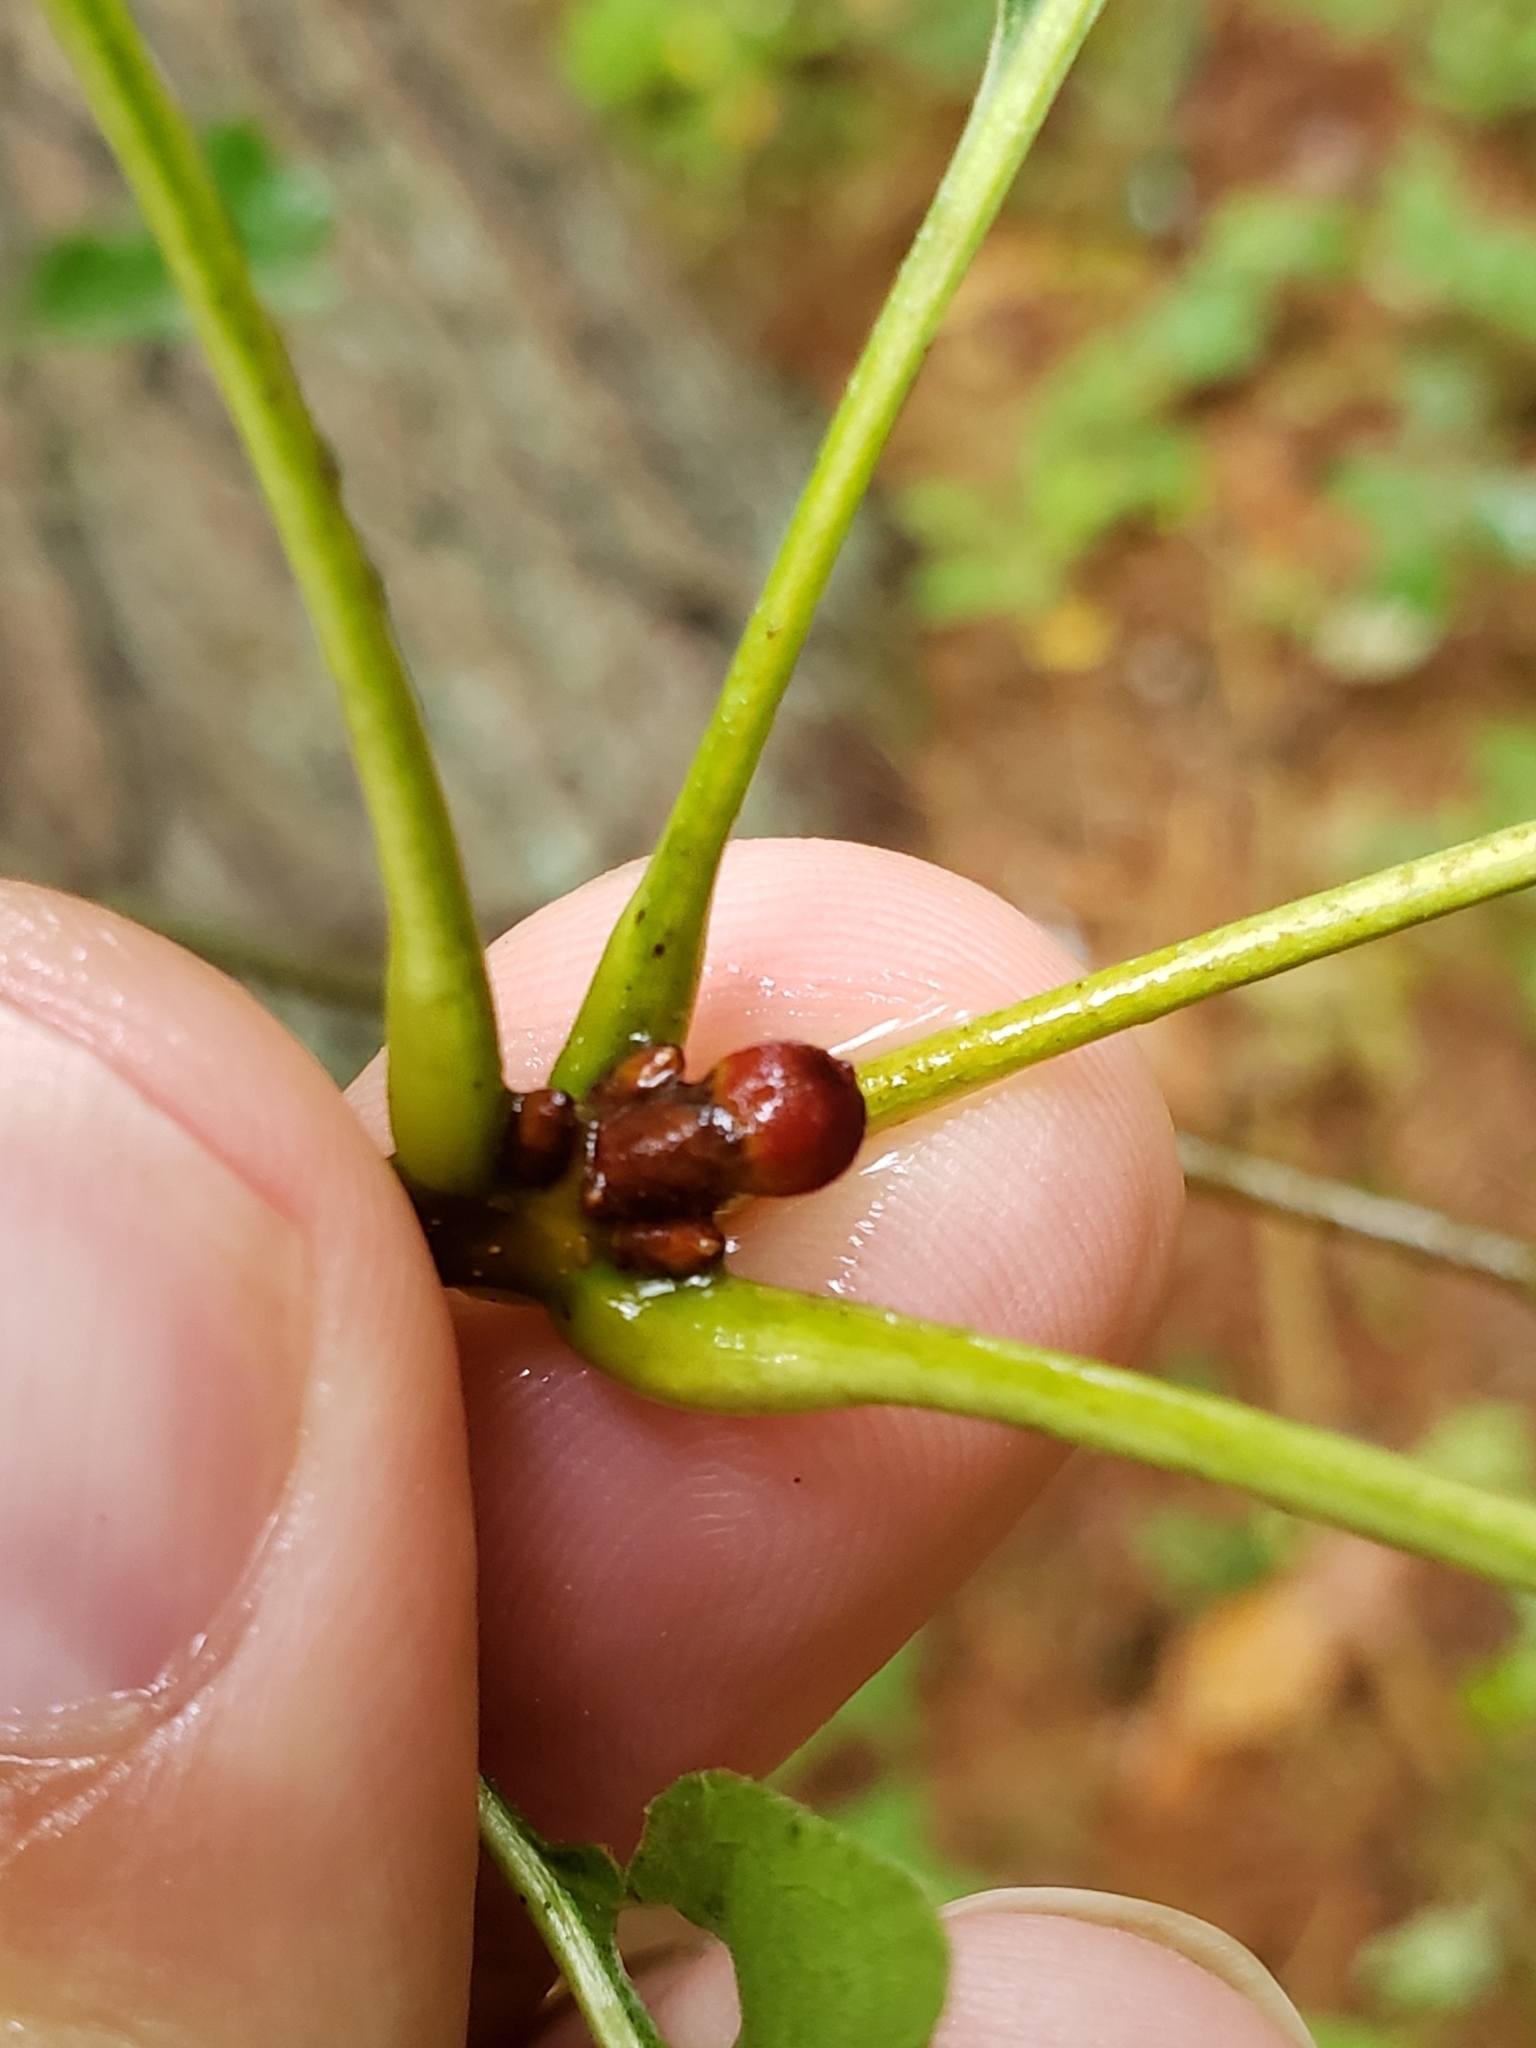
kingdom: Animalia
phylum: Arthropoda
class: Insecta
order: Hymenoptera
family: Cynipidae
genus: Amphibolips
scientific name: Amphibolips
